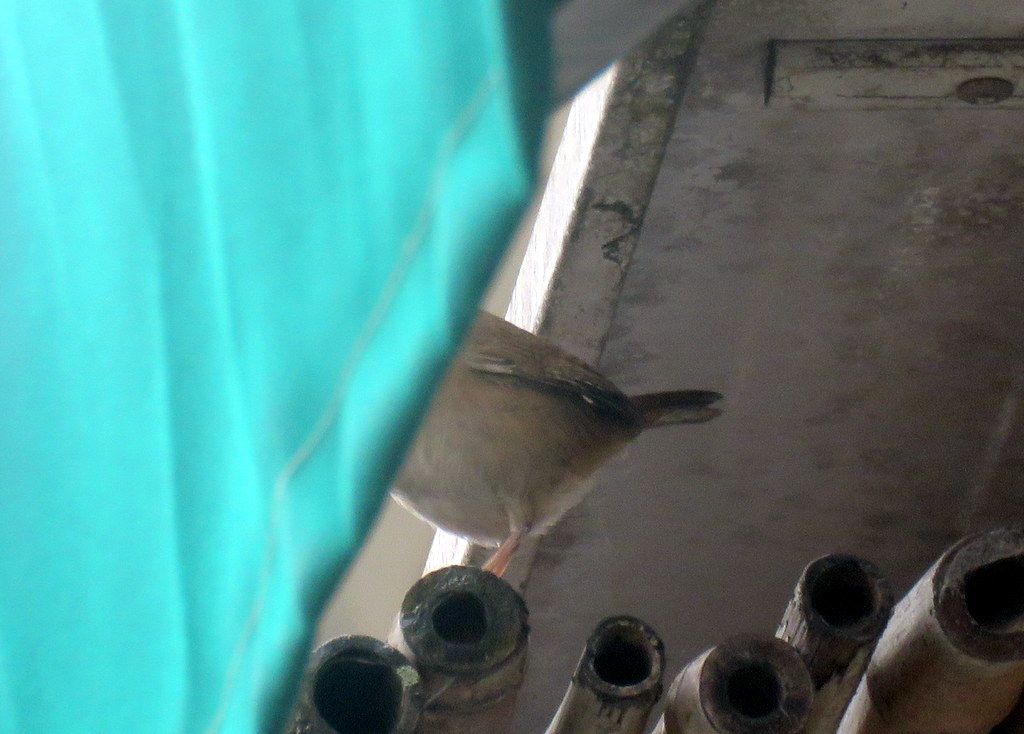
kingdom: Animalia
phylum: Chordata
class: Aves
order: Passeriformes
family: Troglodytidae
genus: Troglodytes
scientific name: Troglodytes aedon
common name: House wren
